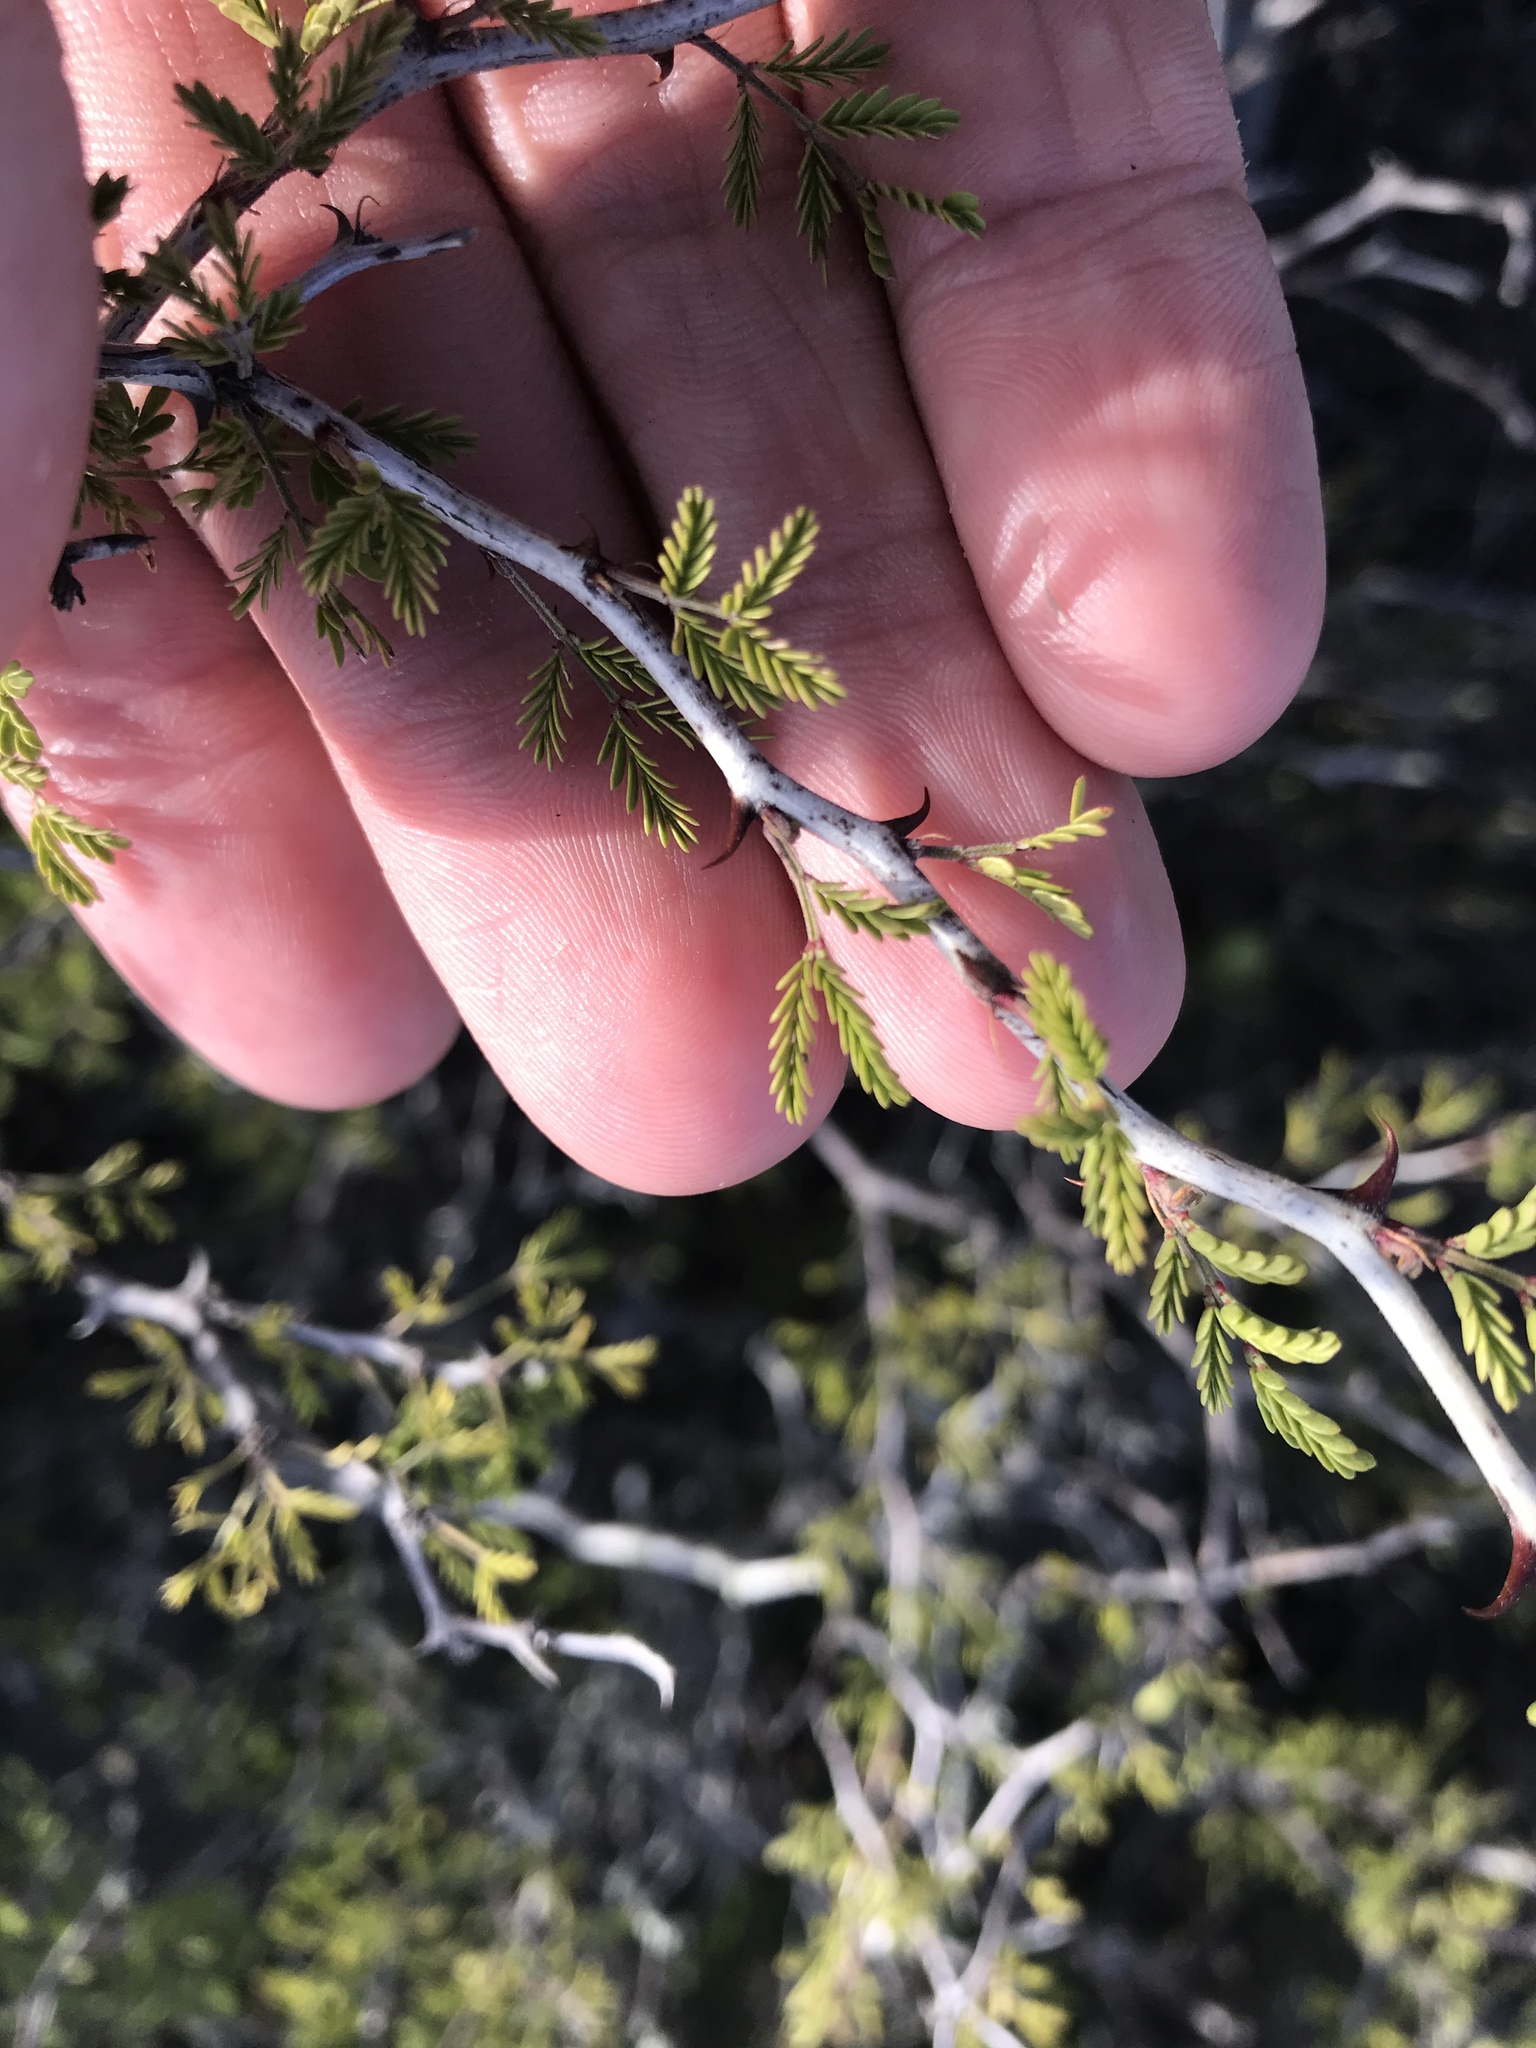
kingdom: Plantae
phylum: Tracheophyta
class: Magnoliopsida
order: Fabales
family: Fabaceae
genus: Mimosa
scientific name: Mimosa texana
